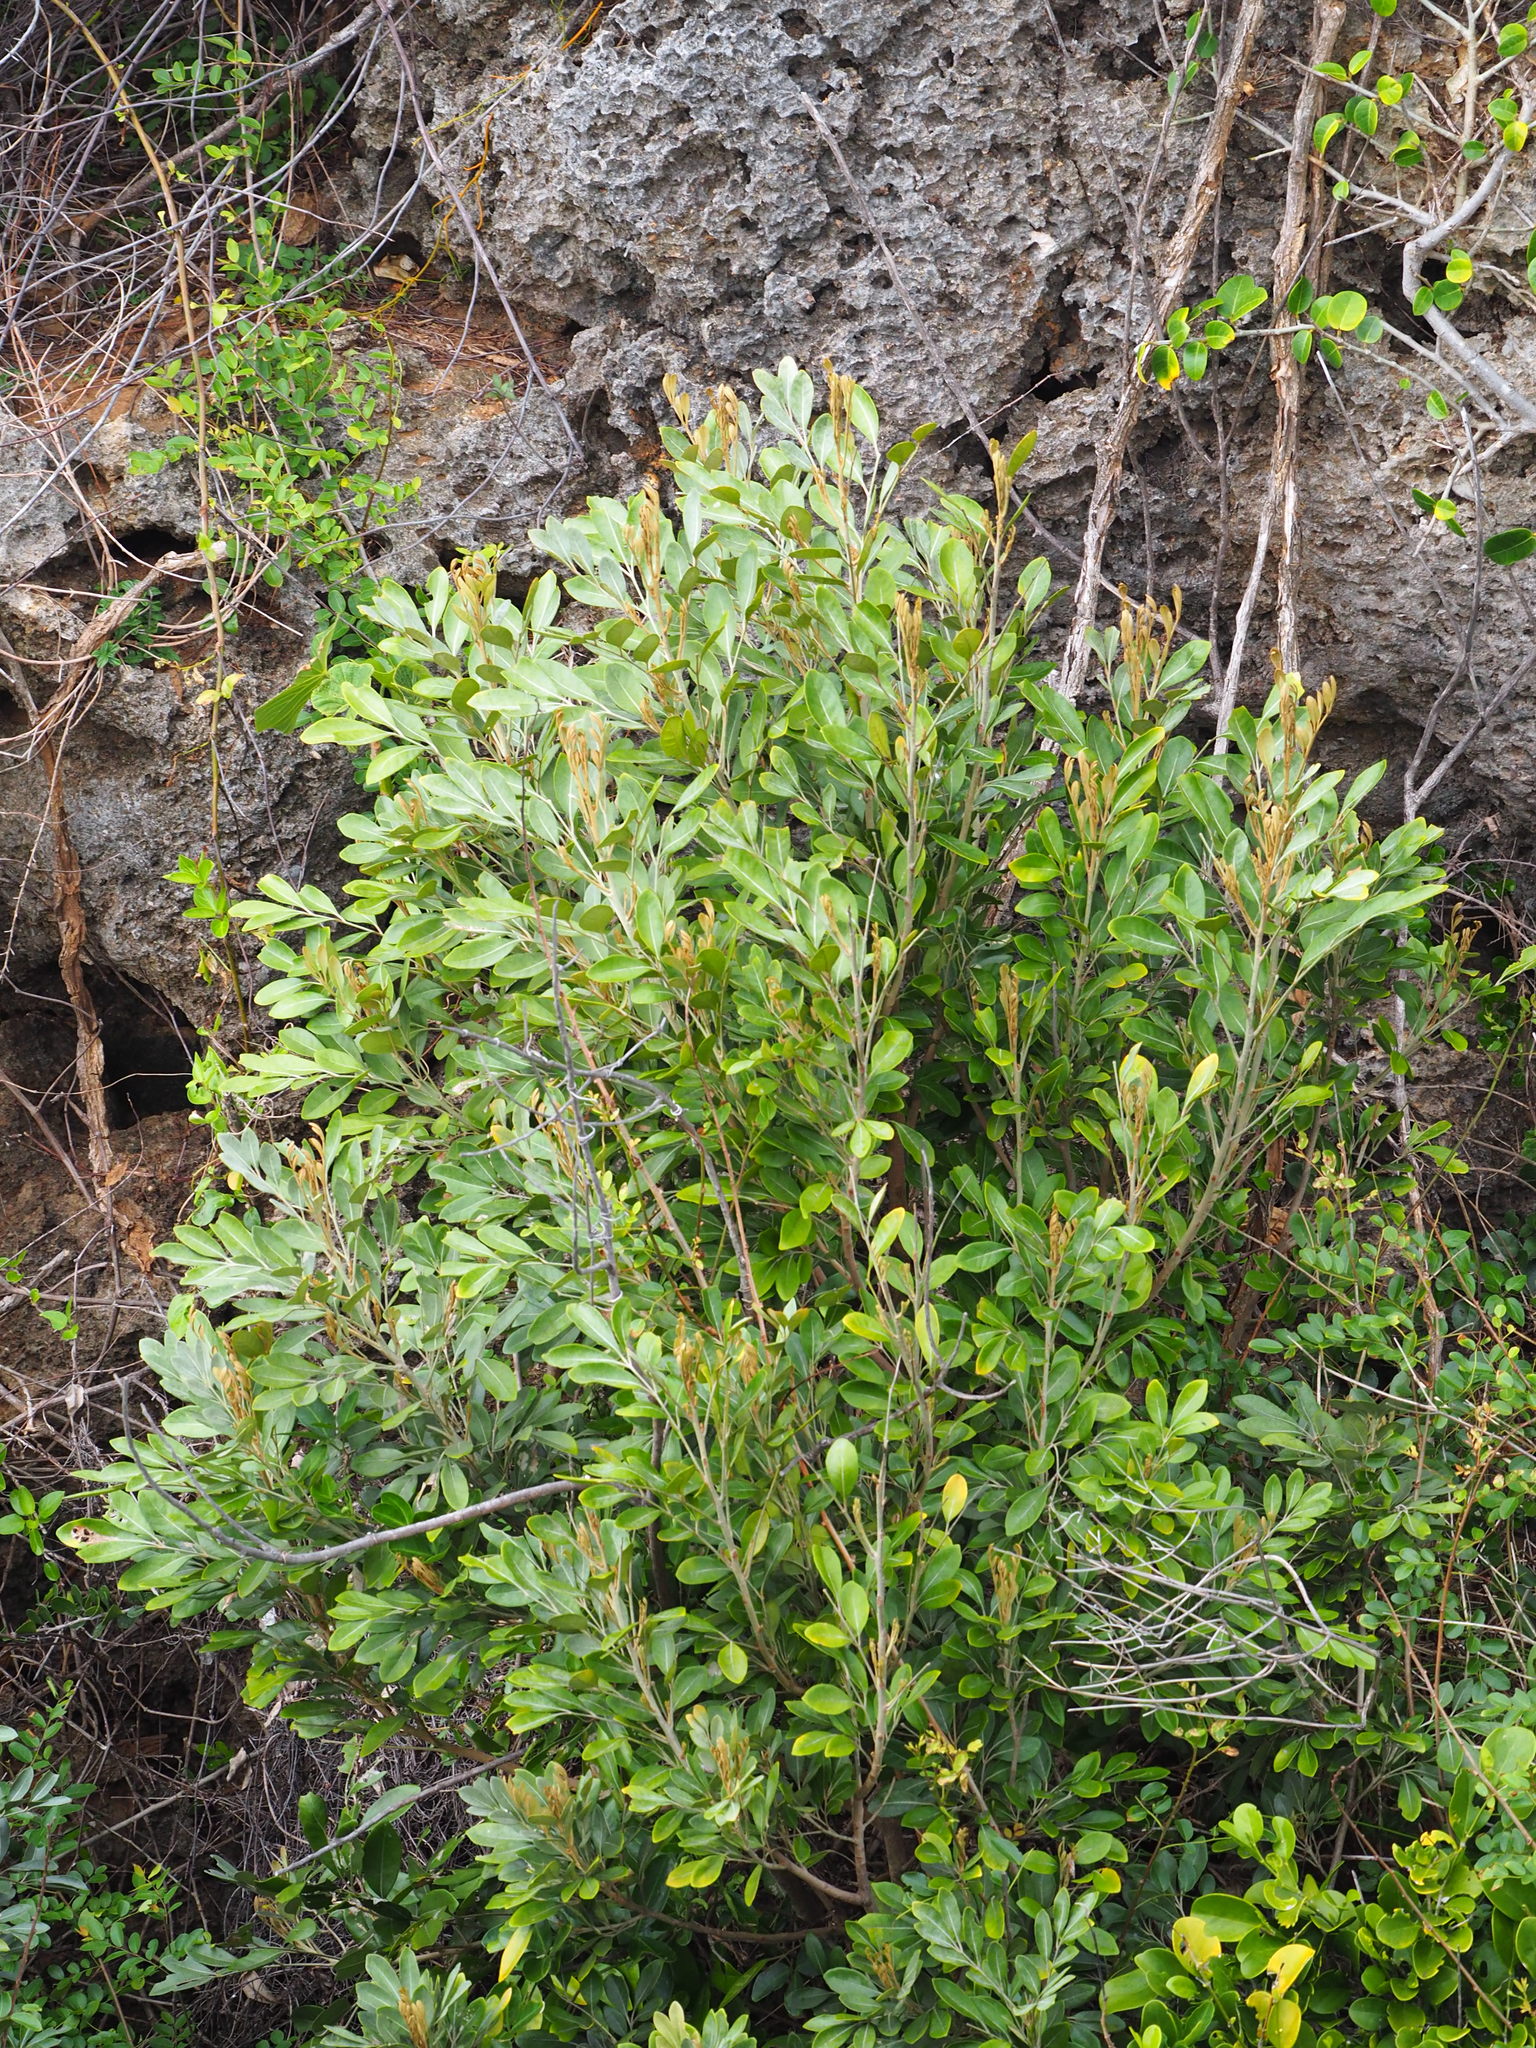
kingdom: Plantae
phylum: Tracheophyta
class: Magnoliopsida
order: Sapindales
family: Meliaceae
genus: Aglaia
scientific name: Aglaia elaeagnoidea
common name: Droopyleaf
